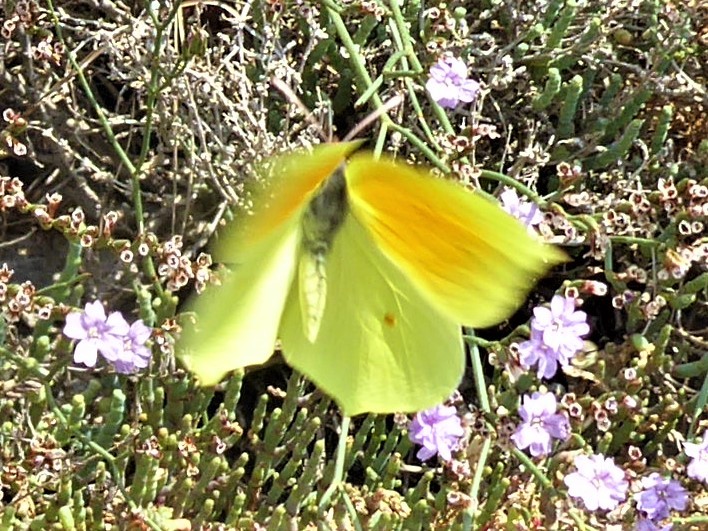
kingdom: Animalia
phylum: Arthropoda
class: Insecta
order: Lepidoptera
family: Pieridae
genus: Gonepteryx
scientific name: Gonepteryx cleopatra
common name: Cleopatra
